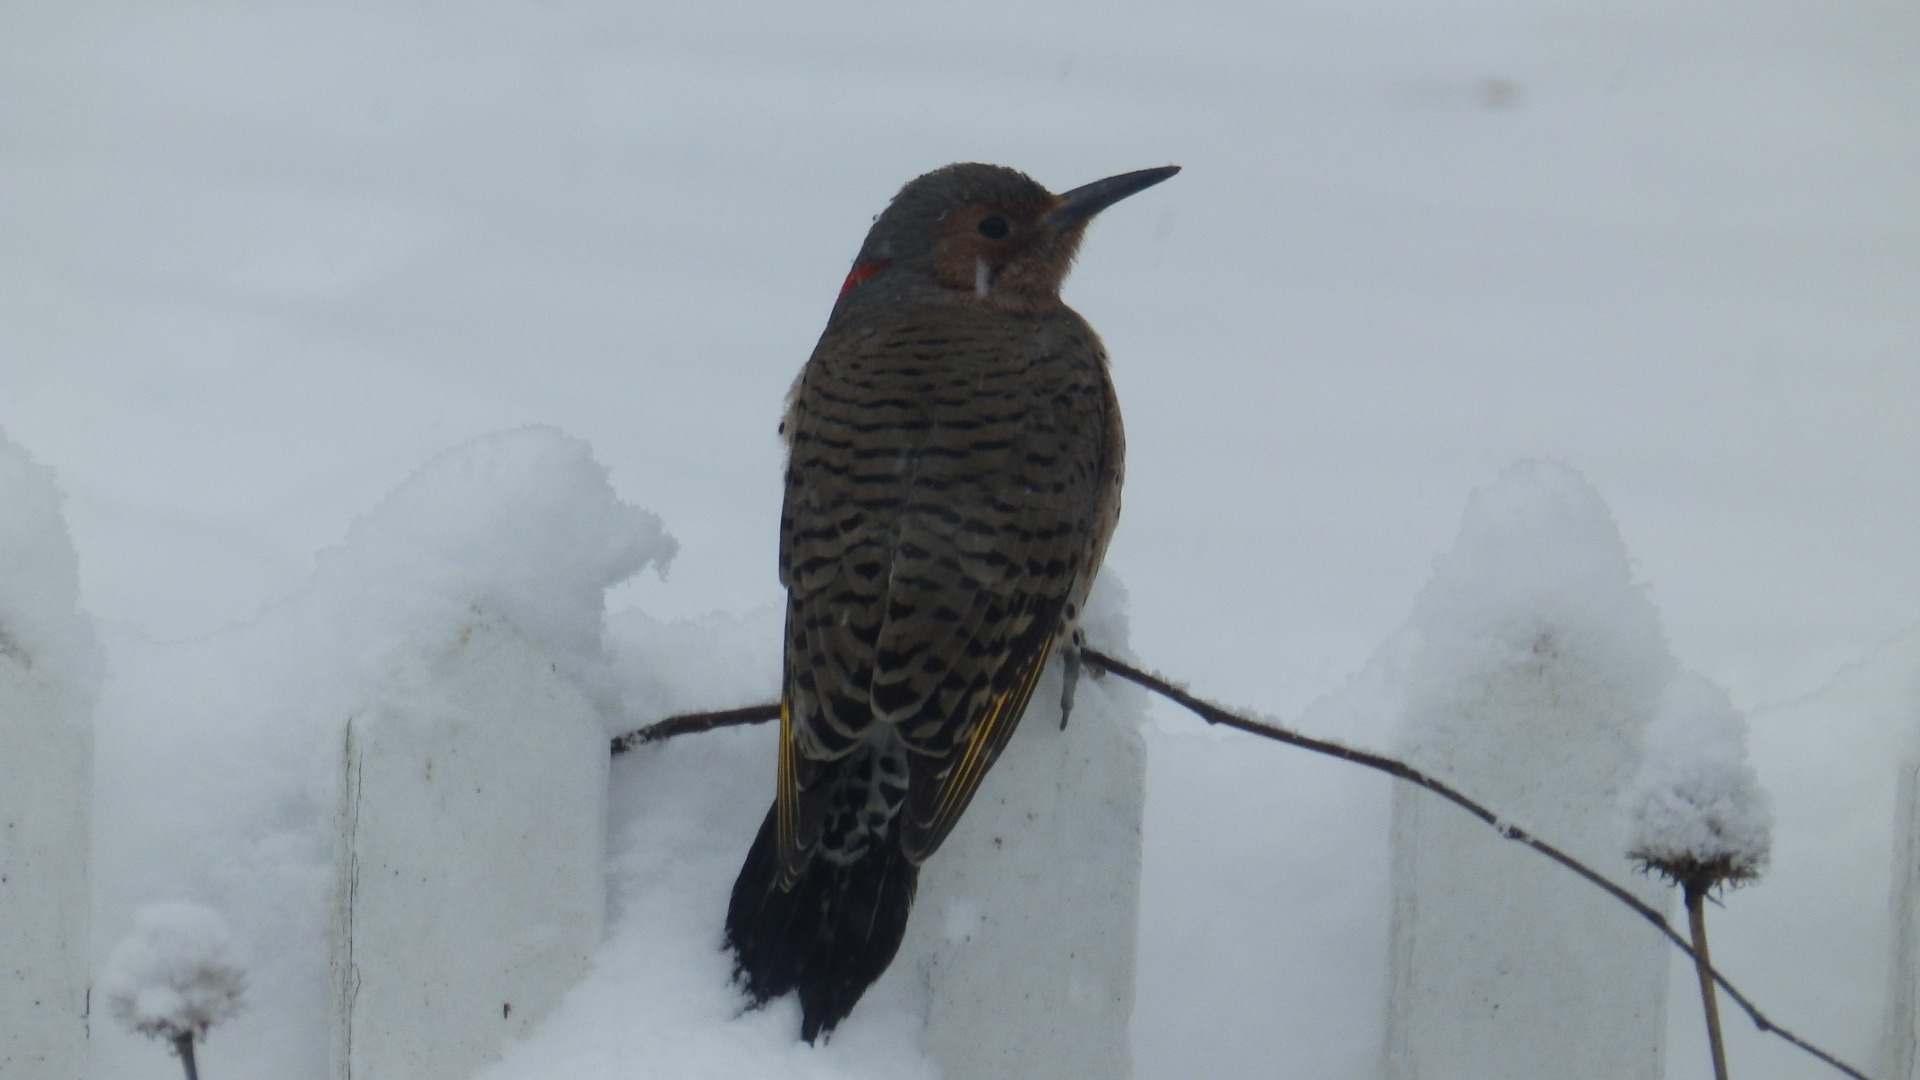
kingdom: Animalia
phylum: Chordata
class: Aves
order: Piciformes
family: Picidae
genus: Colaptes
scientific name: Colaptes auratus
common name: Northern flicker
